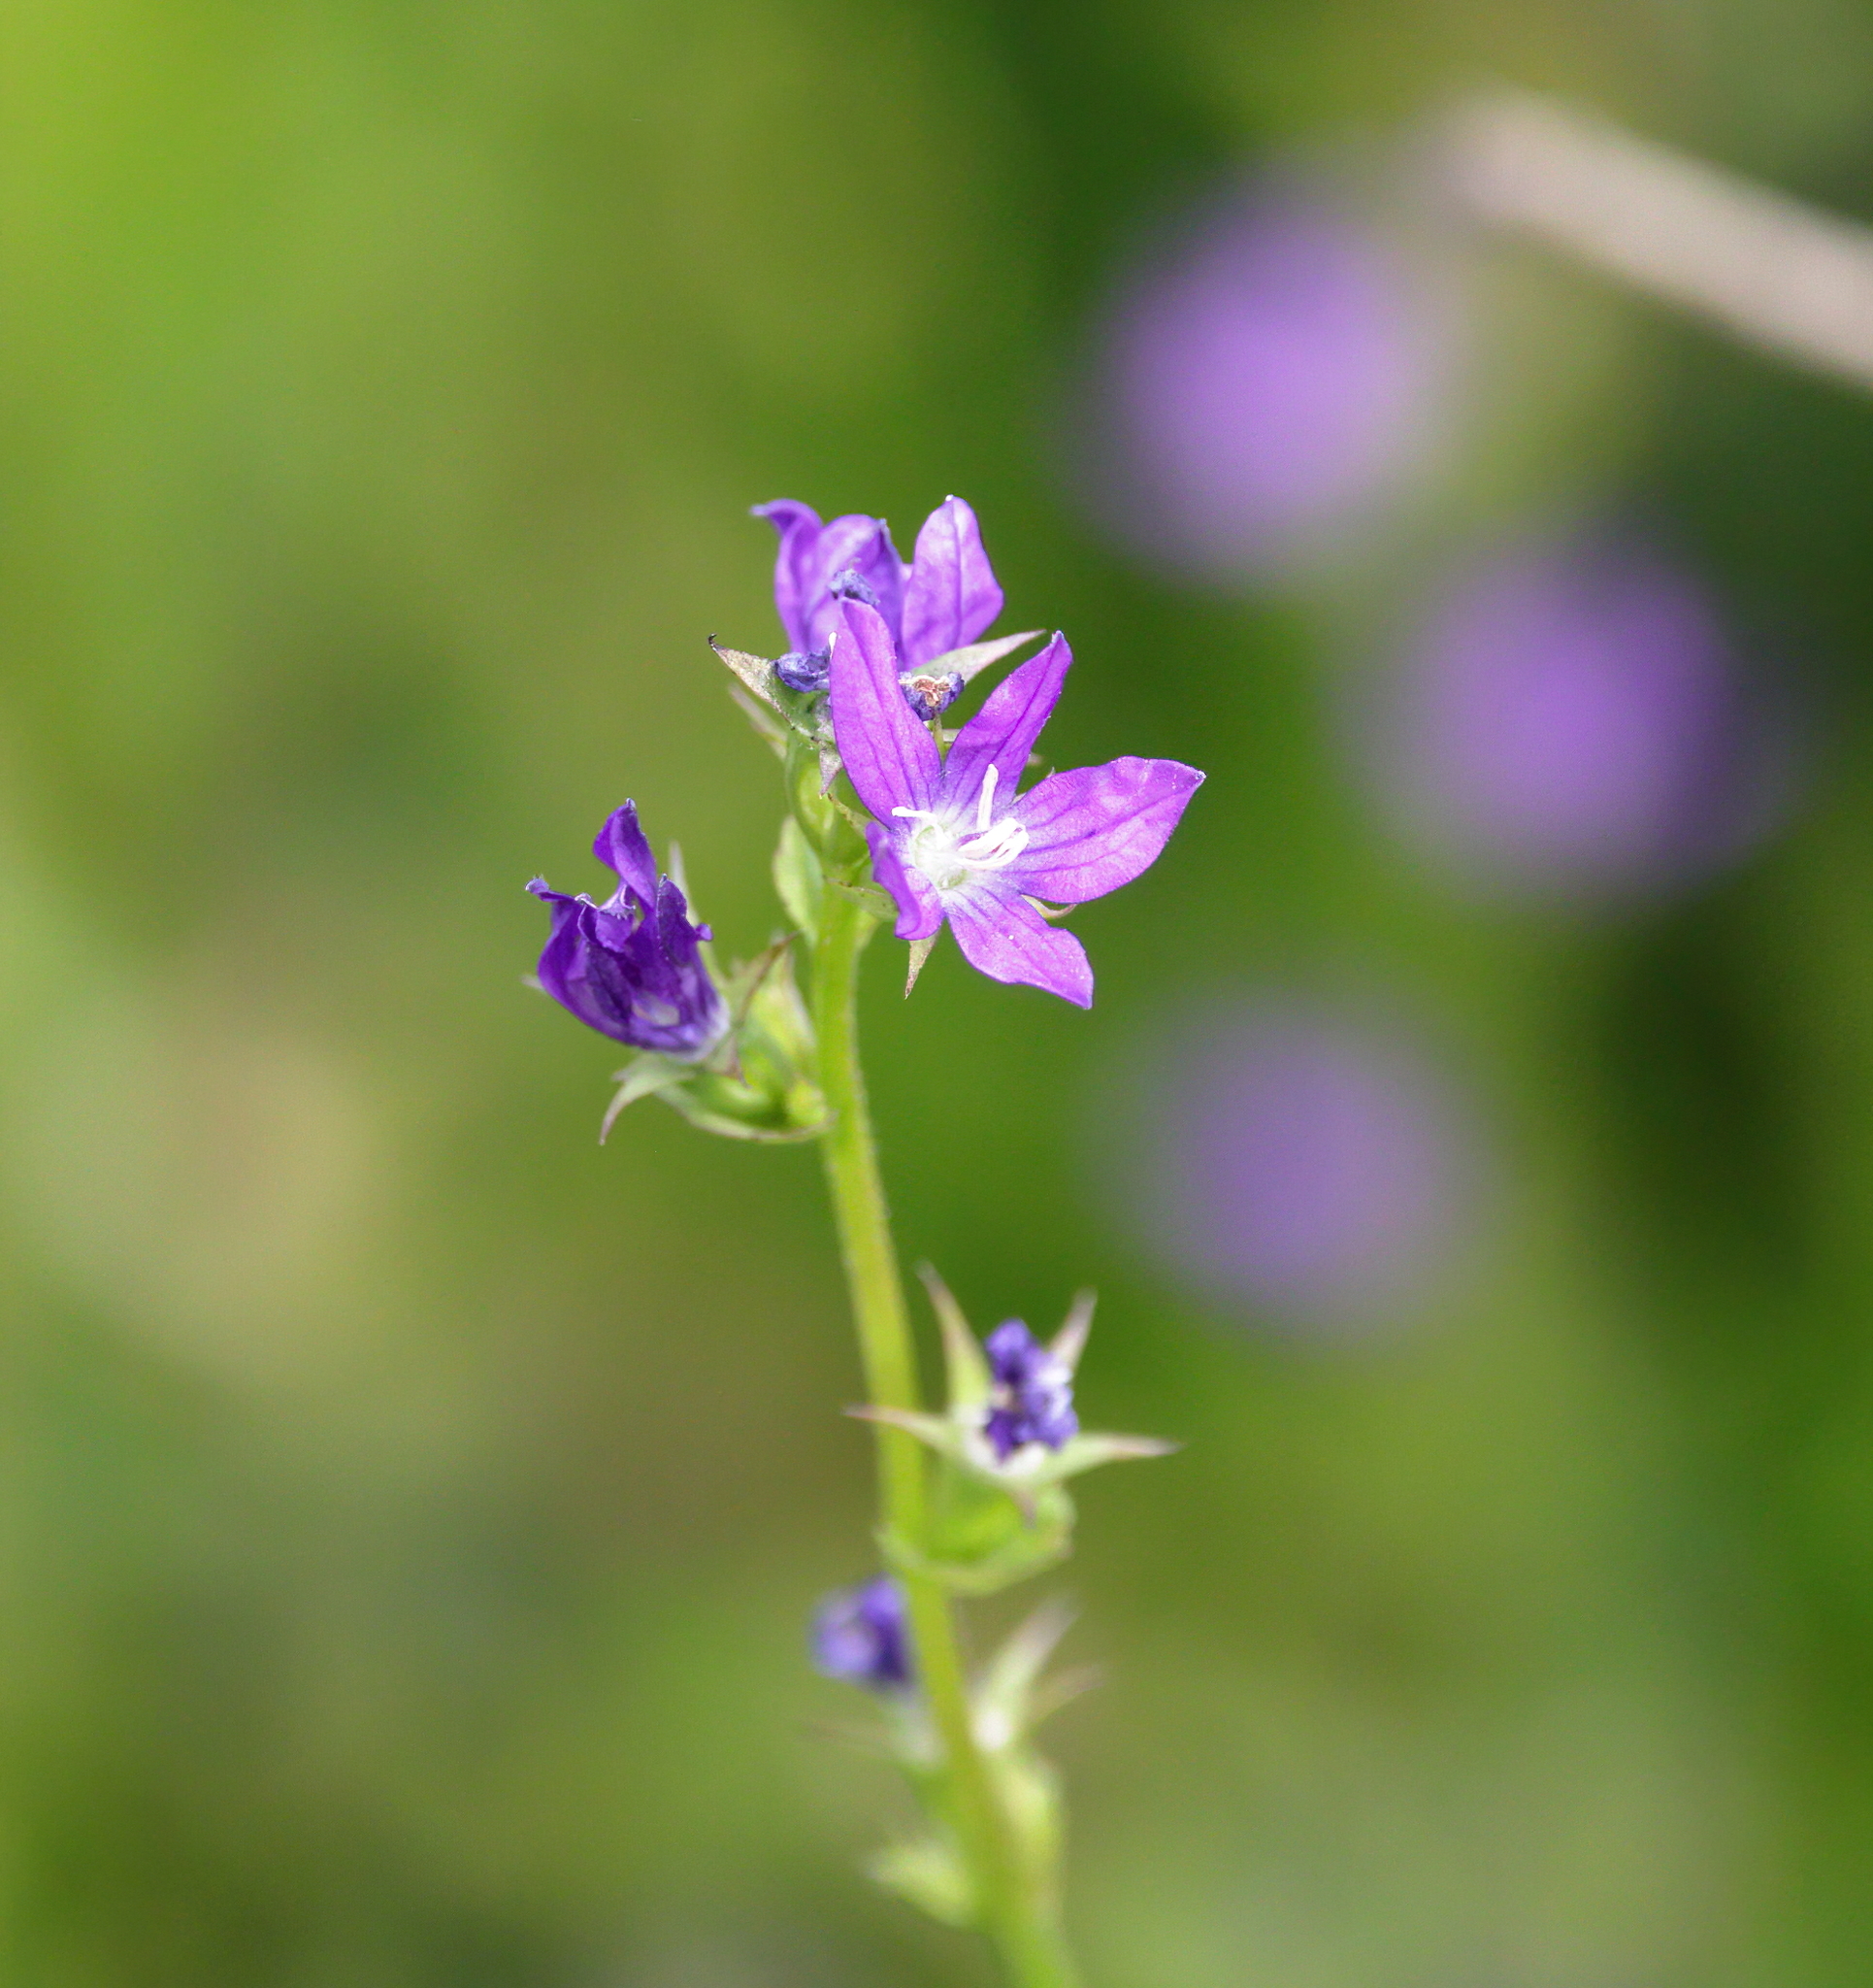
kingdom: Plantae
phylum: Tracheophyta
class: Magnoliopsida
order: Asterales
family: Campanulaceae
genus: Triodanis
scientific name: Triodanis perfoliata
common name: Clasping venus' looking-glass
